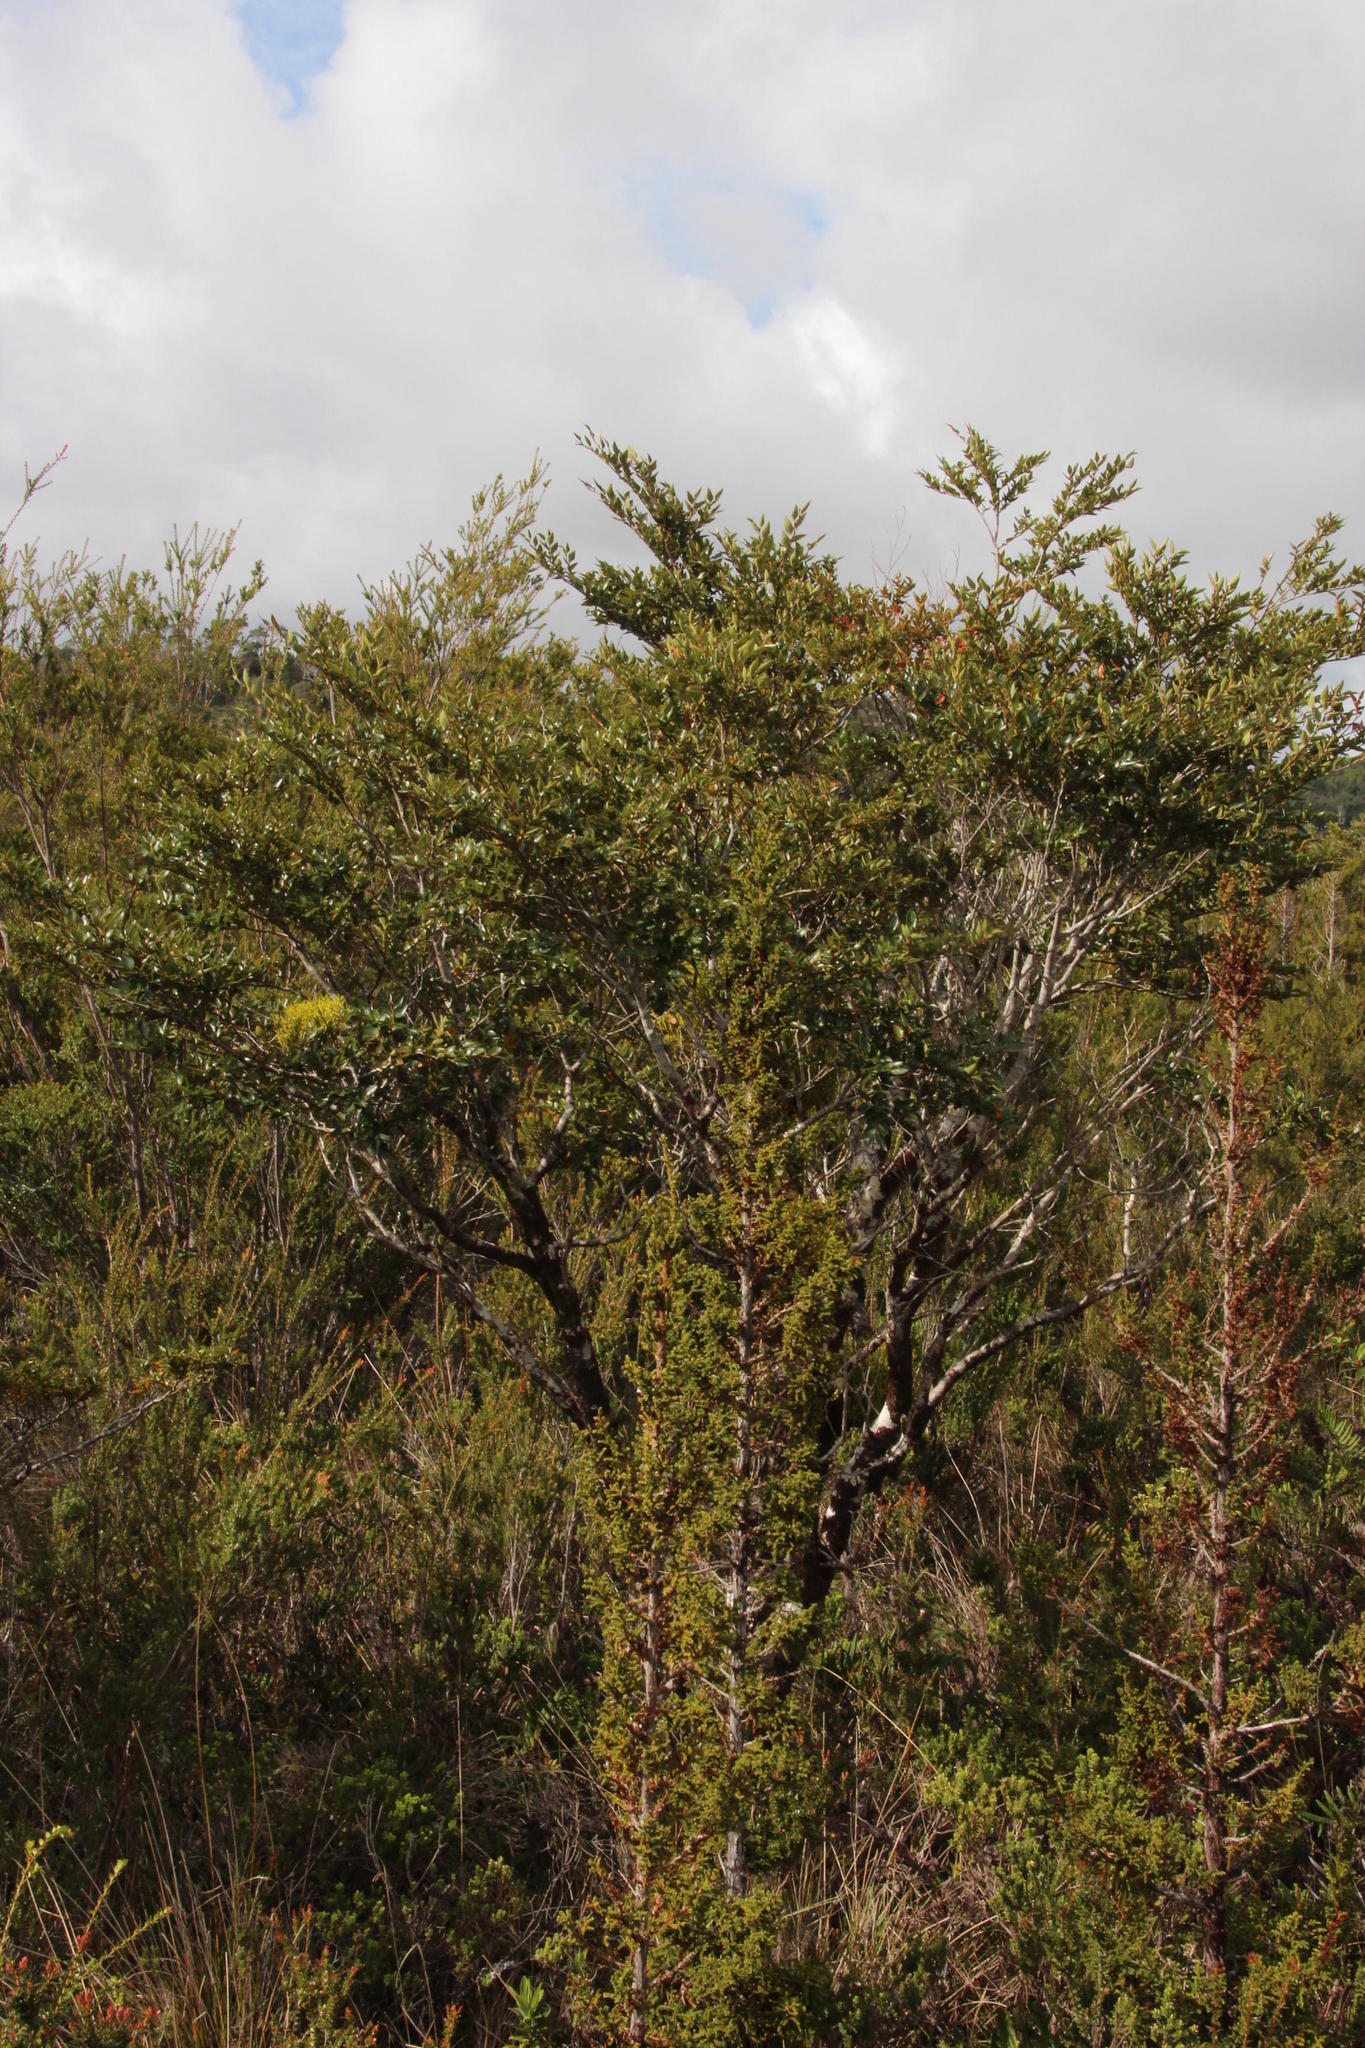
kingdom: Plantae
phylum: Tracheophyta
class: Magnoliopsida
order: Fagales
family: Nothofagaceae
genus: Nothofagus
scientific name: Nothofagus nitida
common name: Chiloé's coigue
